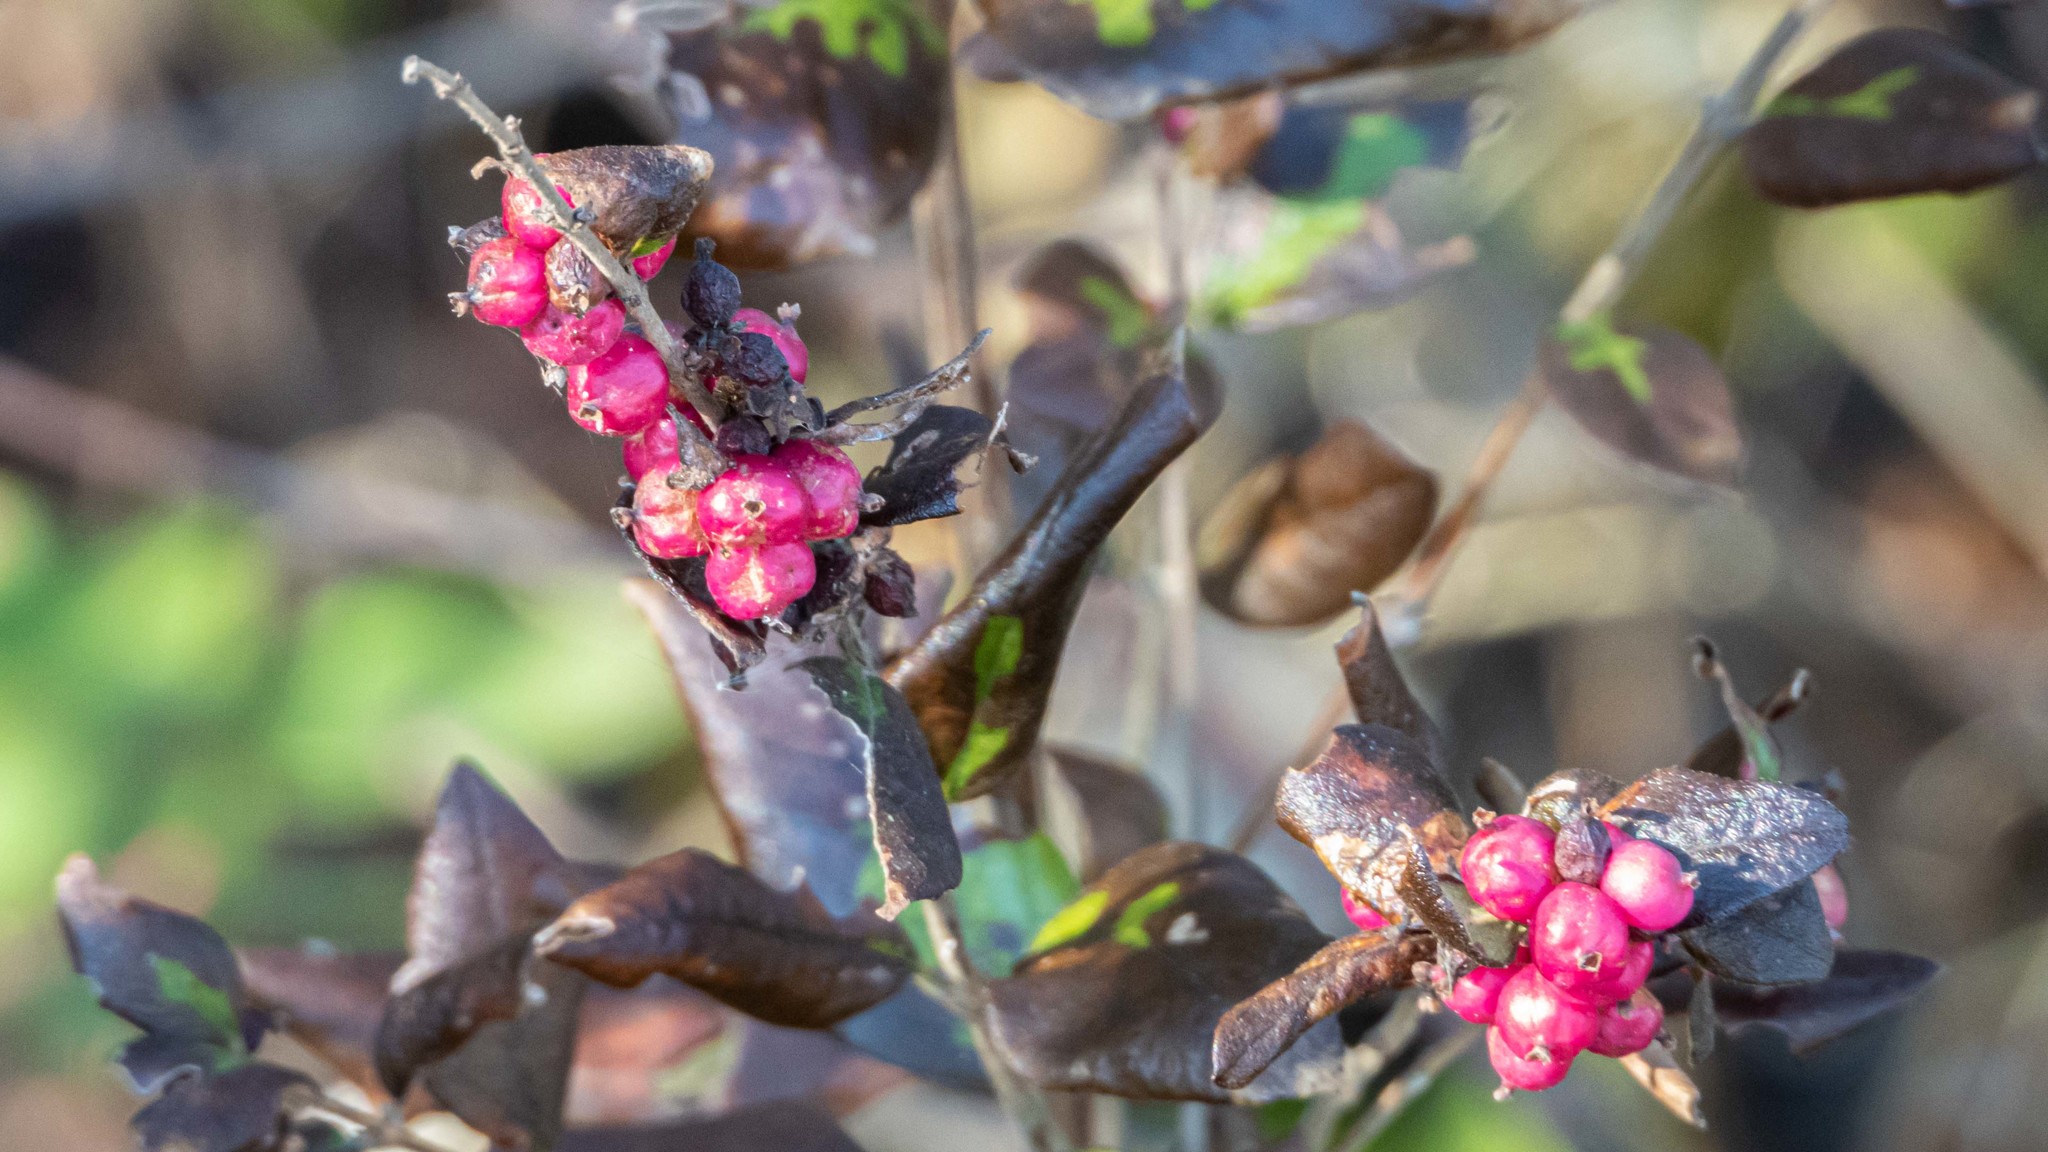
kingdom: Plantae
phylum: Tracheophyta
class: Magnoliopsida
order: Dipsacales
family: Caprifoliaceae
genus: Symphoricarpos
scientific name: Symphoricarpos orbiculatus
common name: Coralberry
